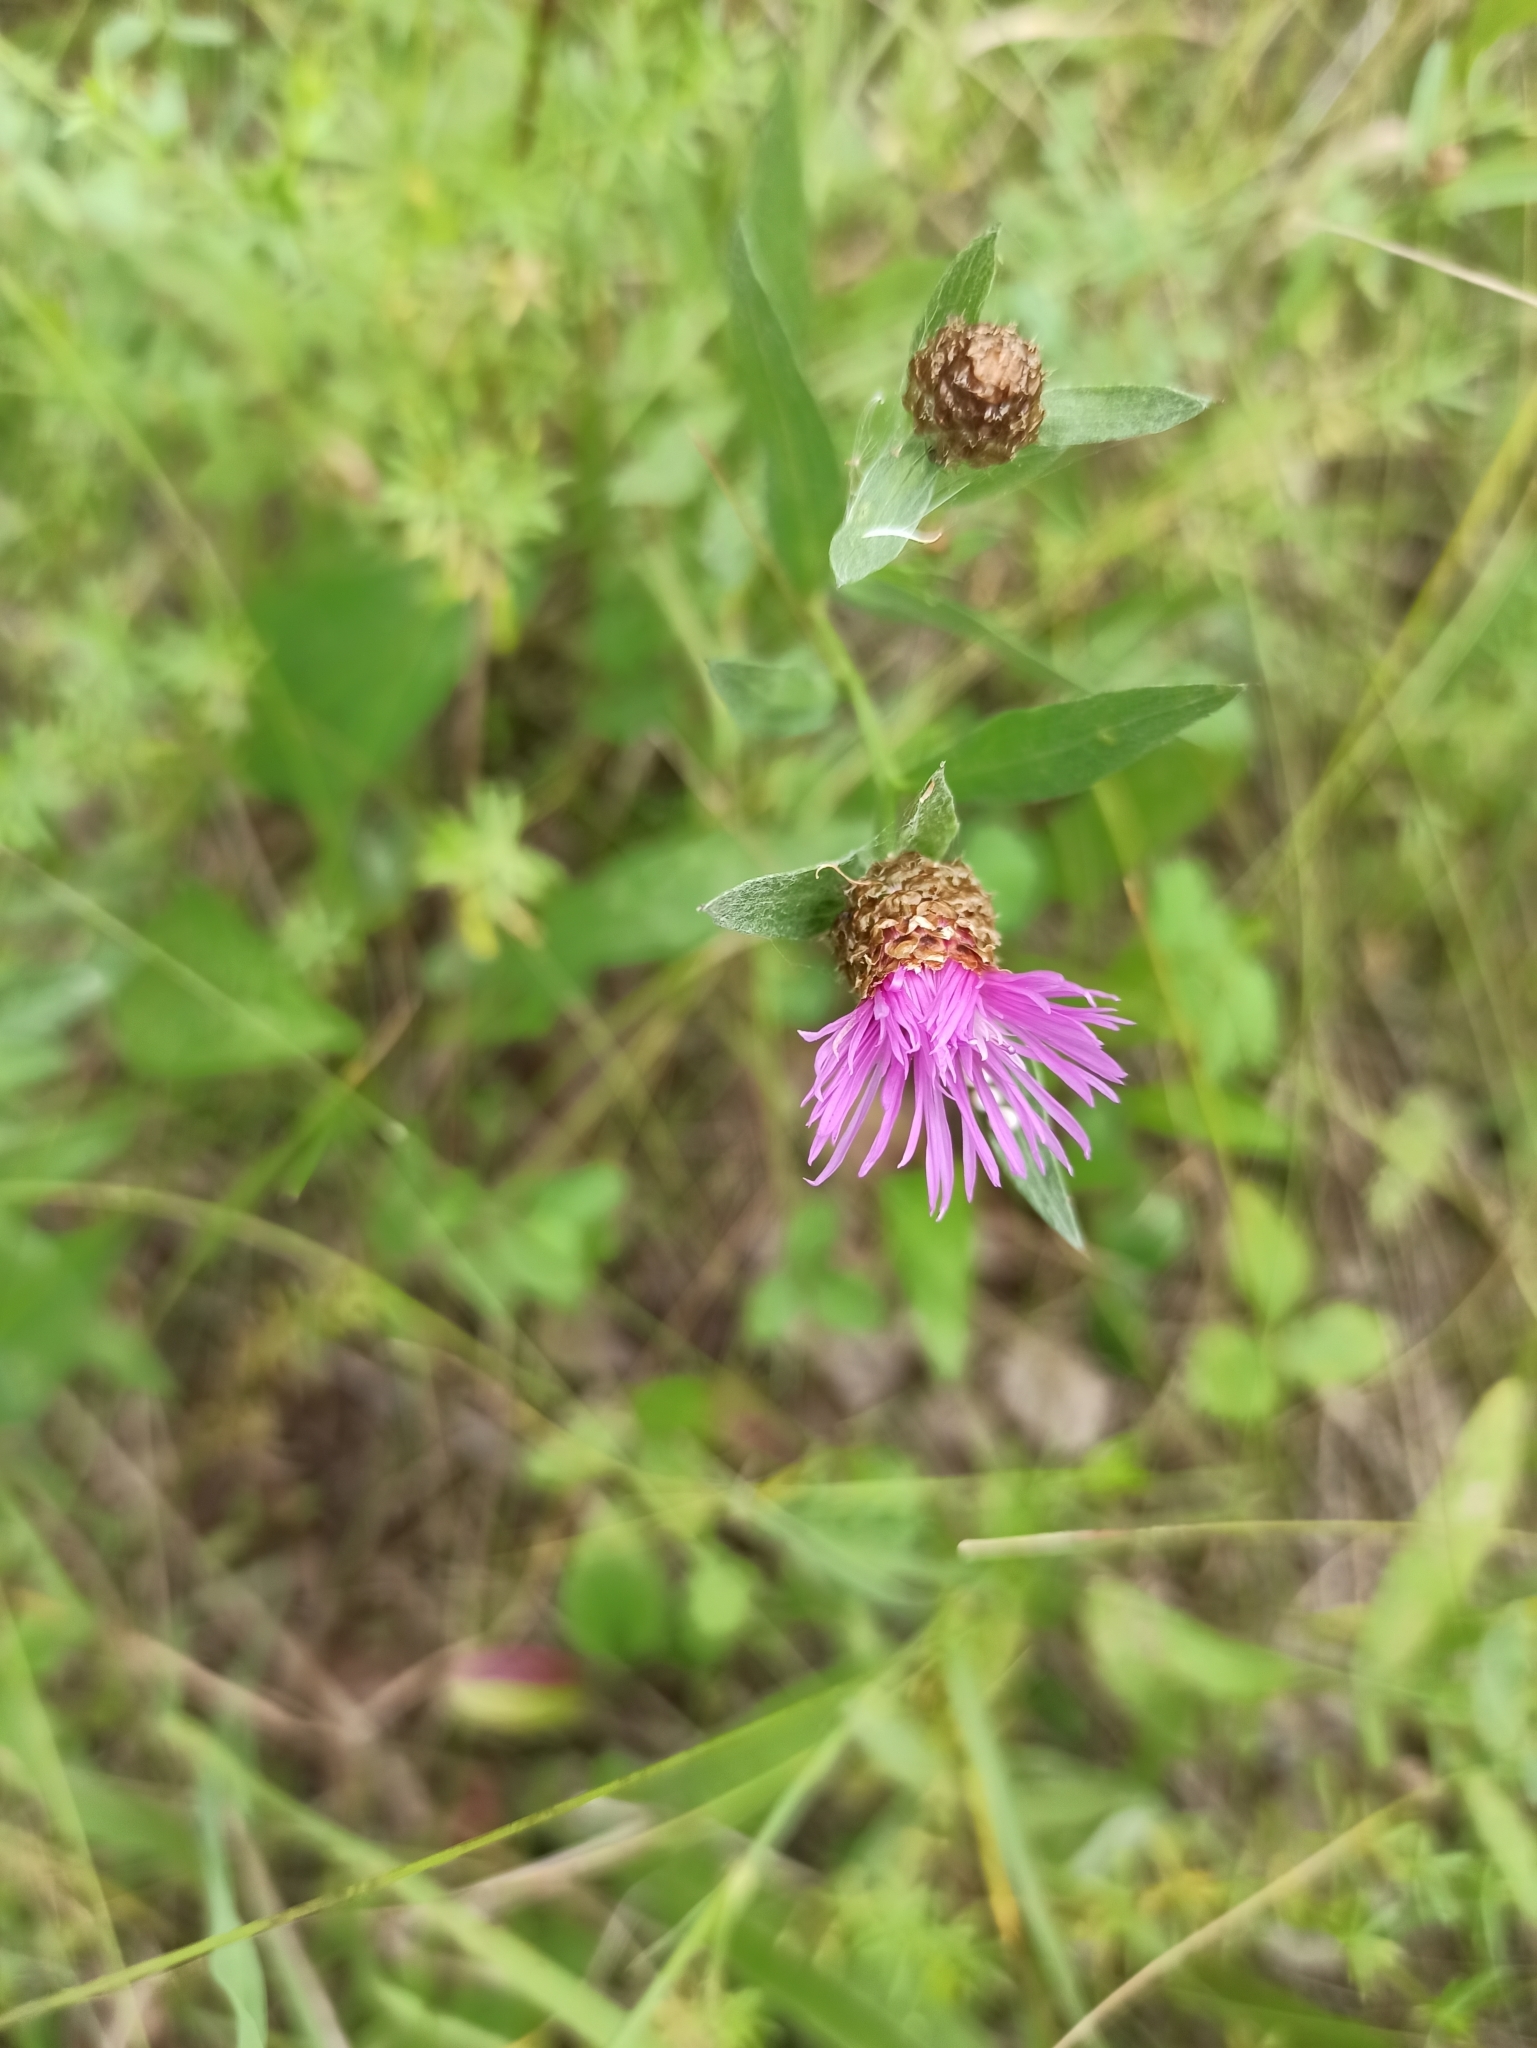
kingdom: Plantae
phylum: Tracheophyta
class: Magnoliopsida
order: Asterales
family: Asteraceae
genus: Centaurea
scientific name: Centaurea jacea
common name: Brown knapweed
